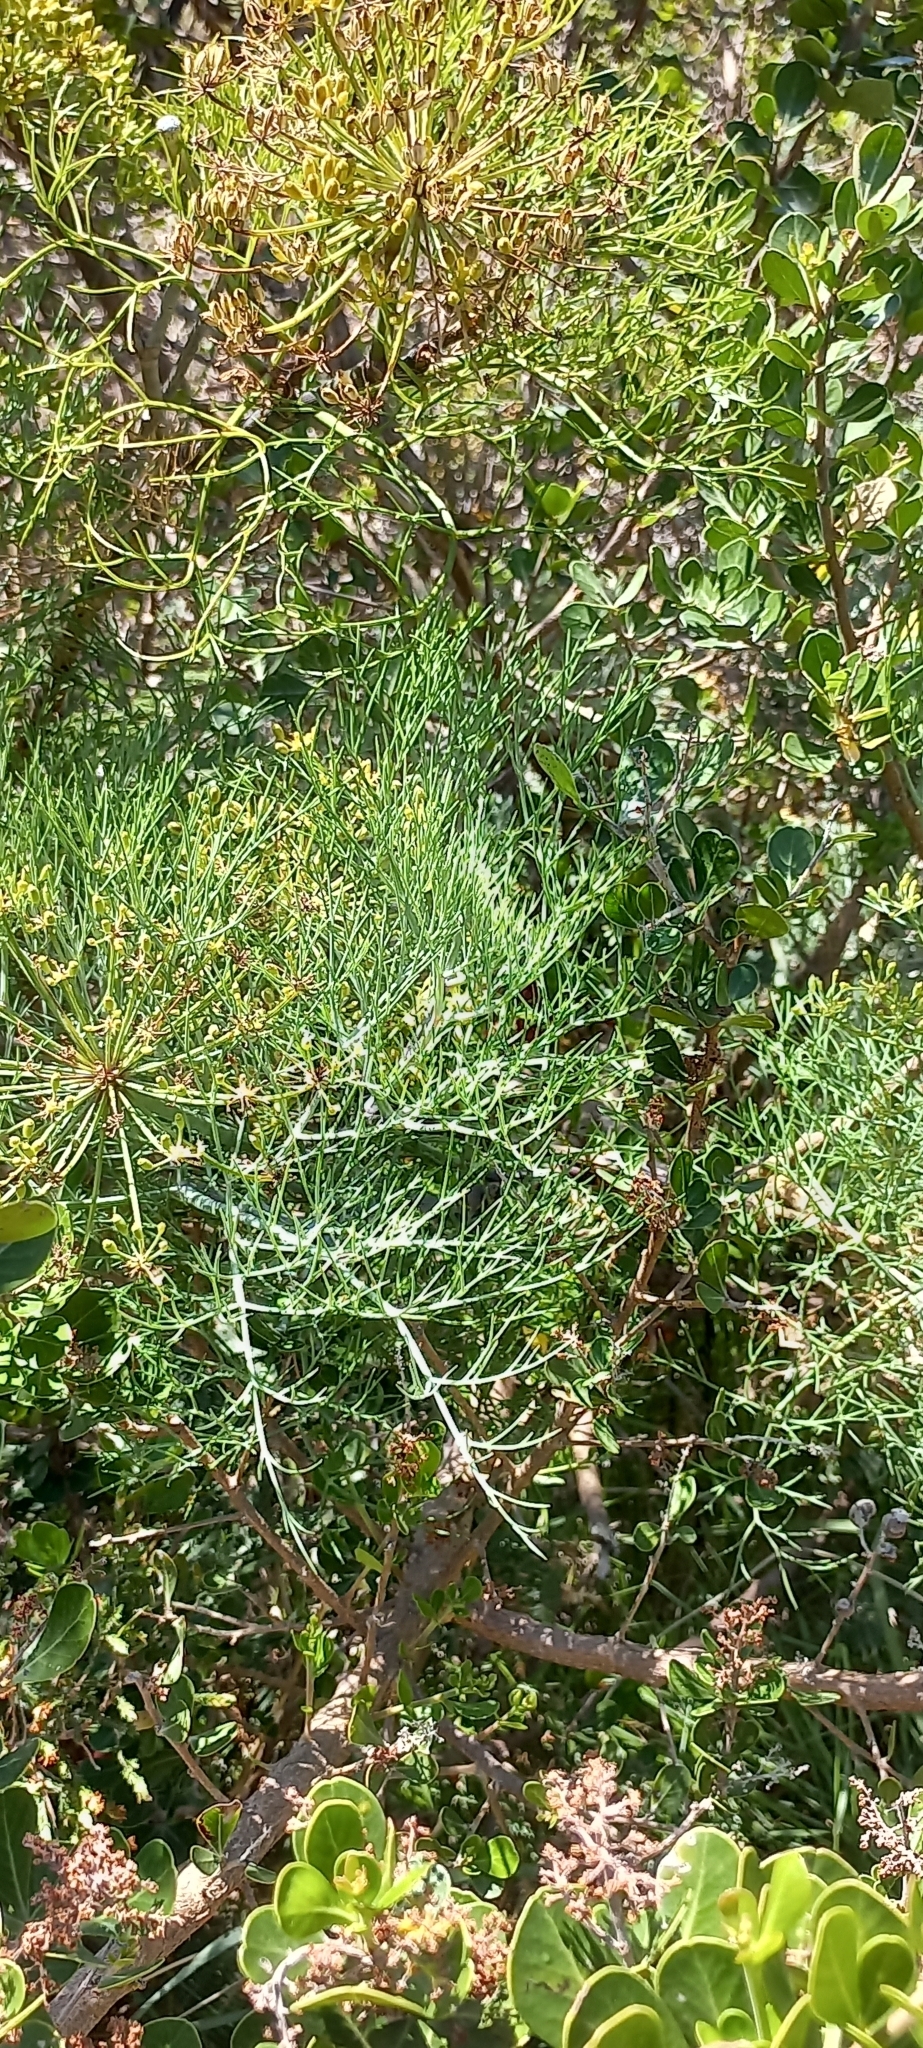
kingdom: Plantae
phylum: Tracheophyta
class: Magnoliopsida
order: Apiales
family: Apiaceae
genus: Notobubon
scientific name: Notobubon capense
